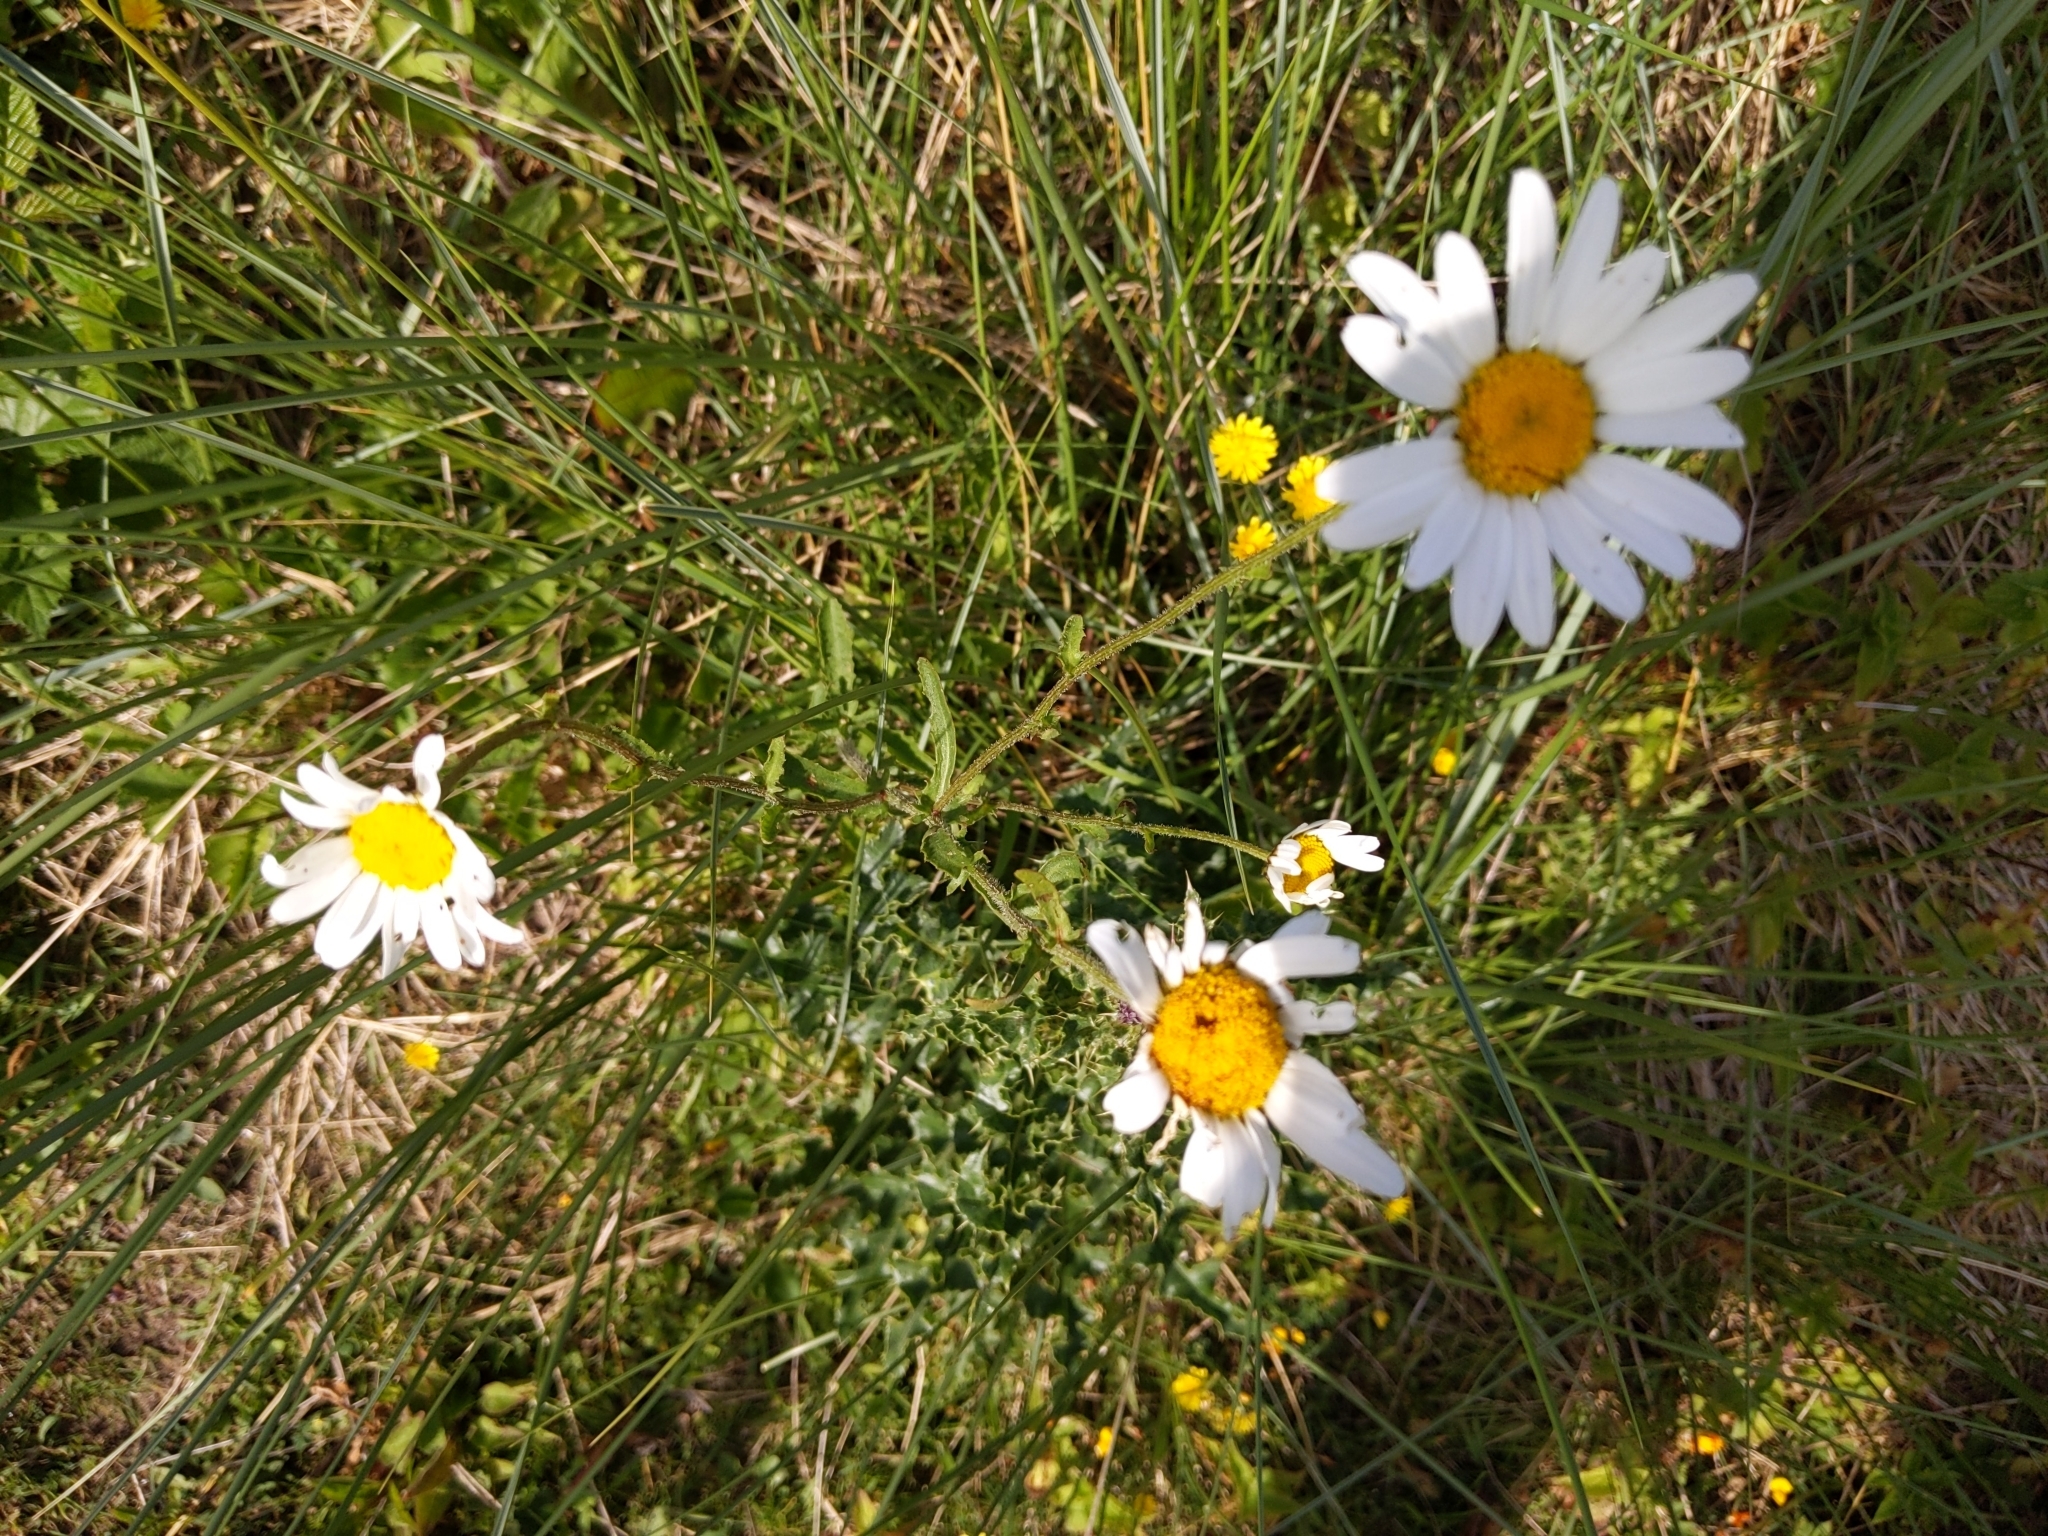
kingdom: Plantae
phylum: Tracheophyta
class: Magnoliopsida
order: Asterales
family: Asteraceae
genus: Leucanthemum
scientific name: Leucanthemum vulgare
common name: Oxeye daisy
